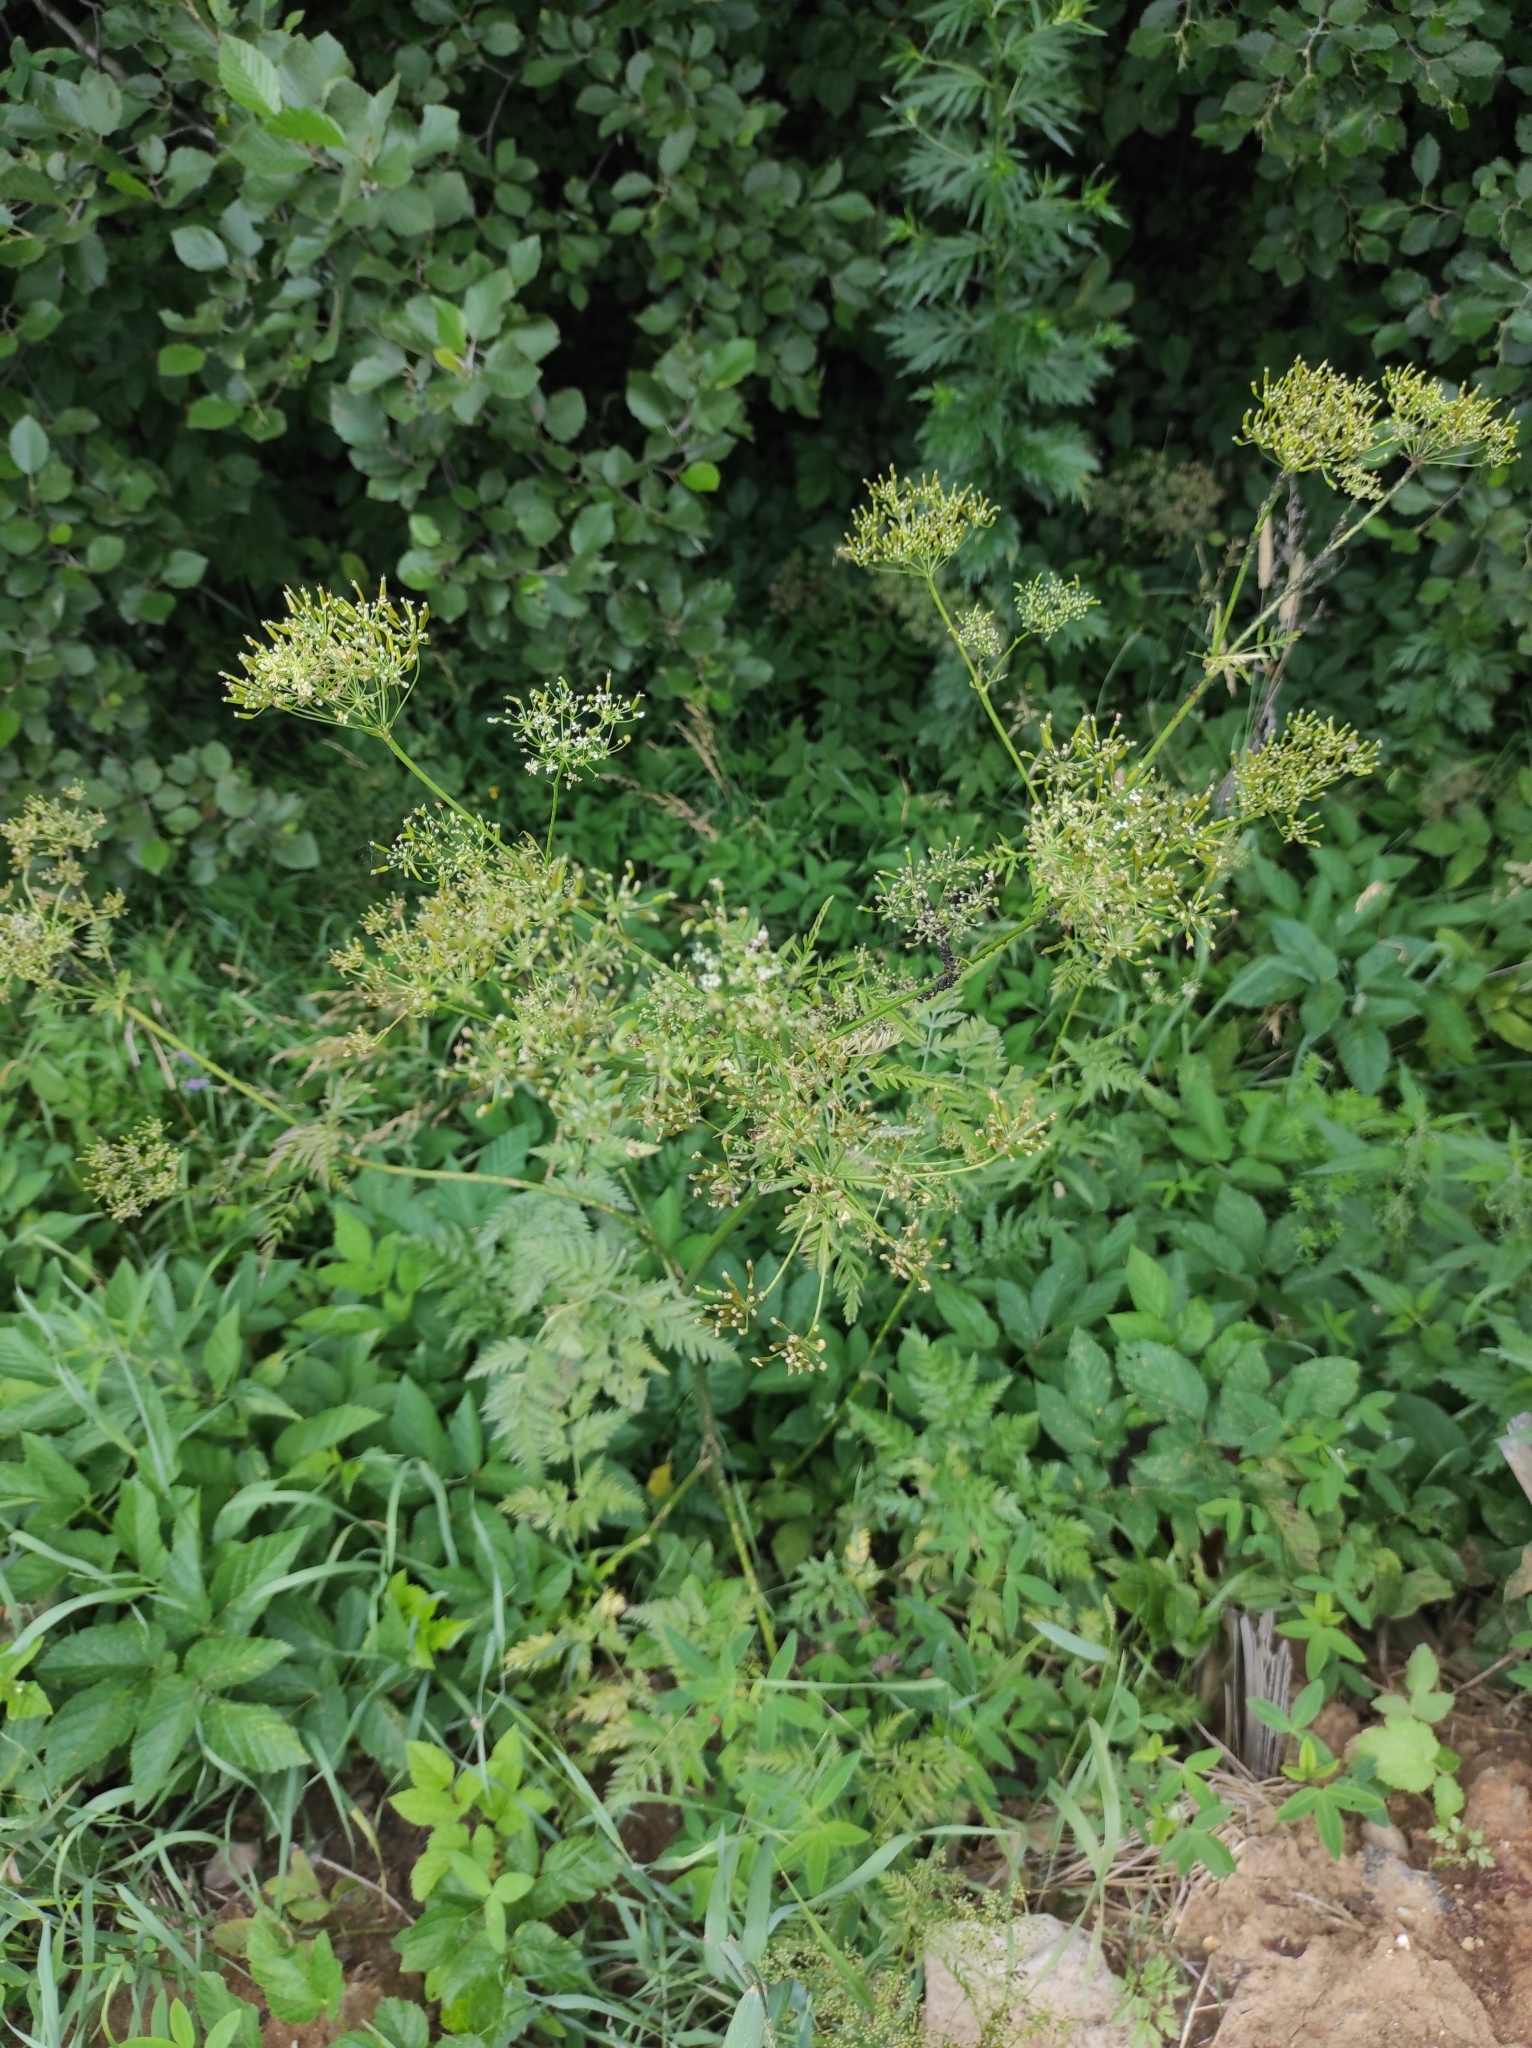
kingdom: Plantae
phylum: Tracheophyta
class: Magnoliopsida
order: Apiales
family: Apiaceae
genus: Anthriscus
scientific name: Anthriscus sylvestris
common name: Cow parsley
